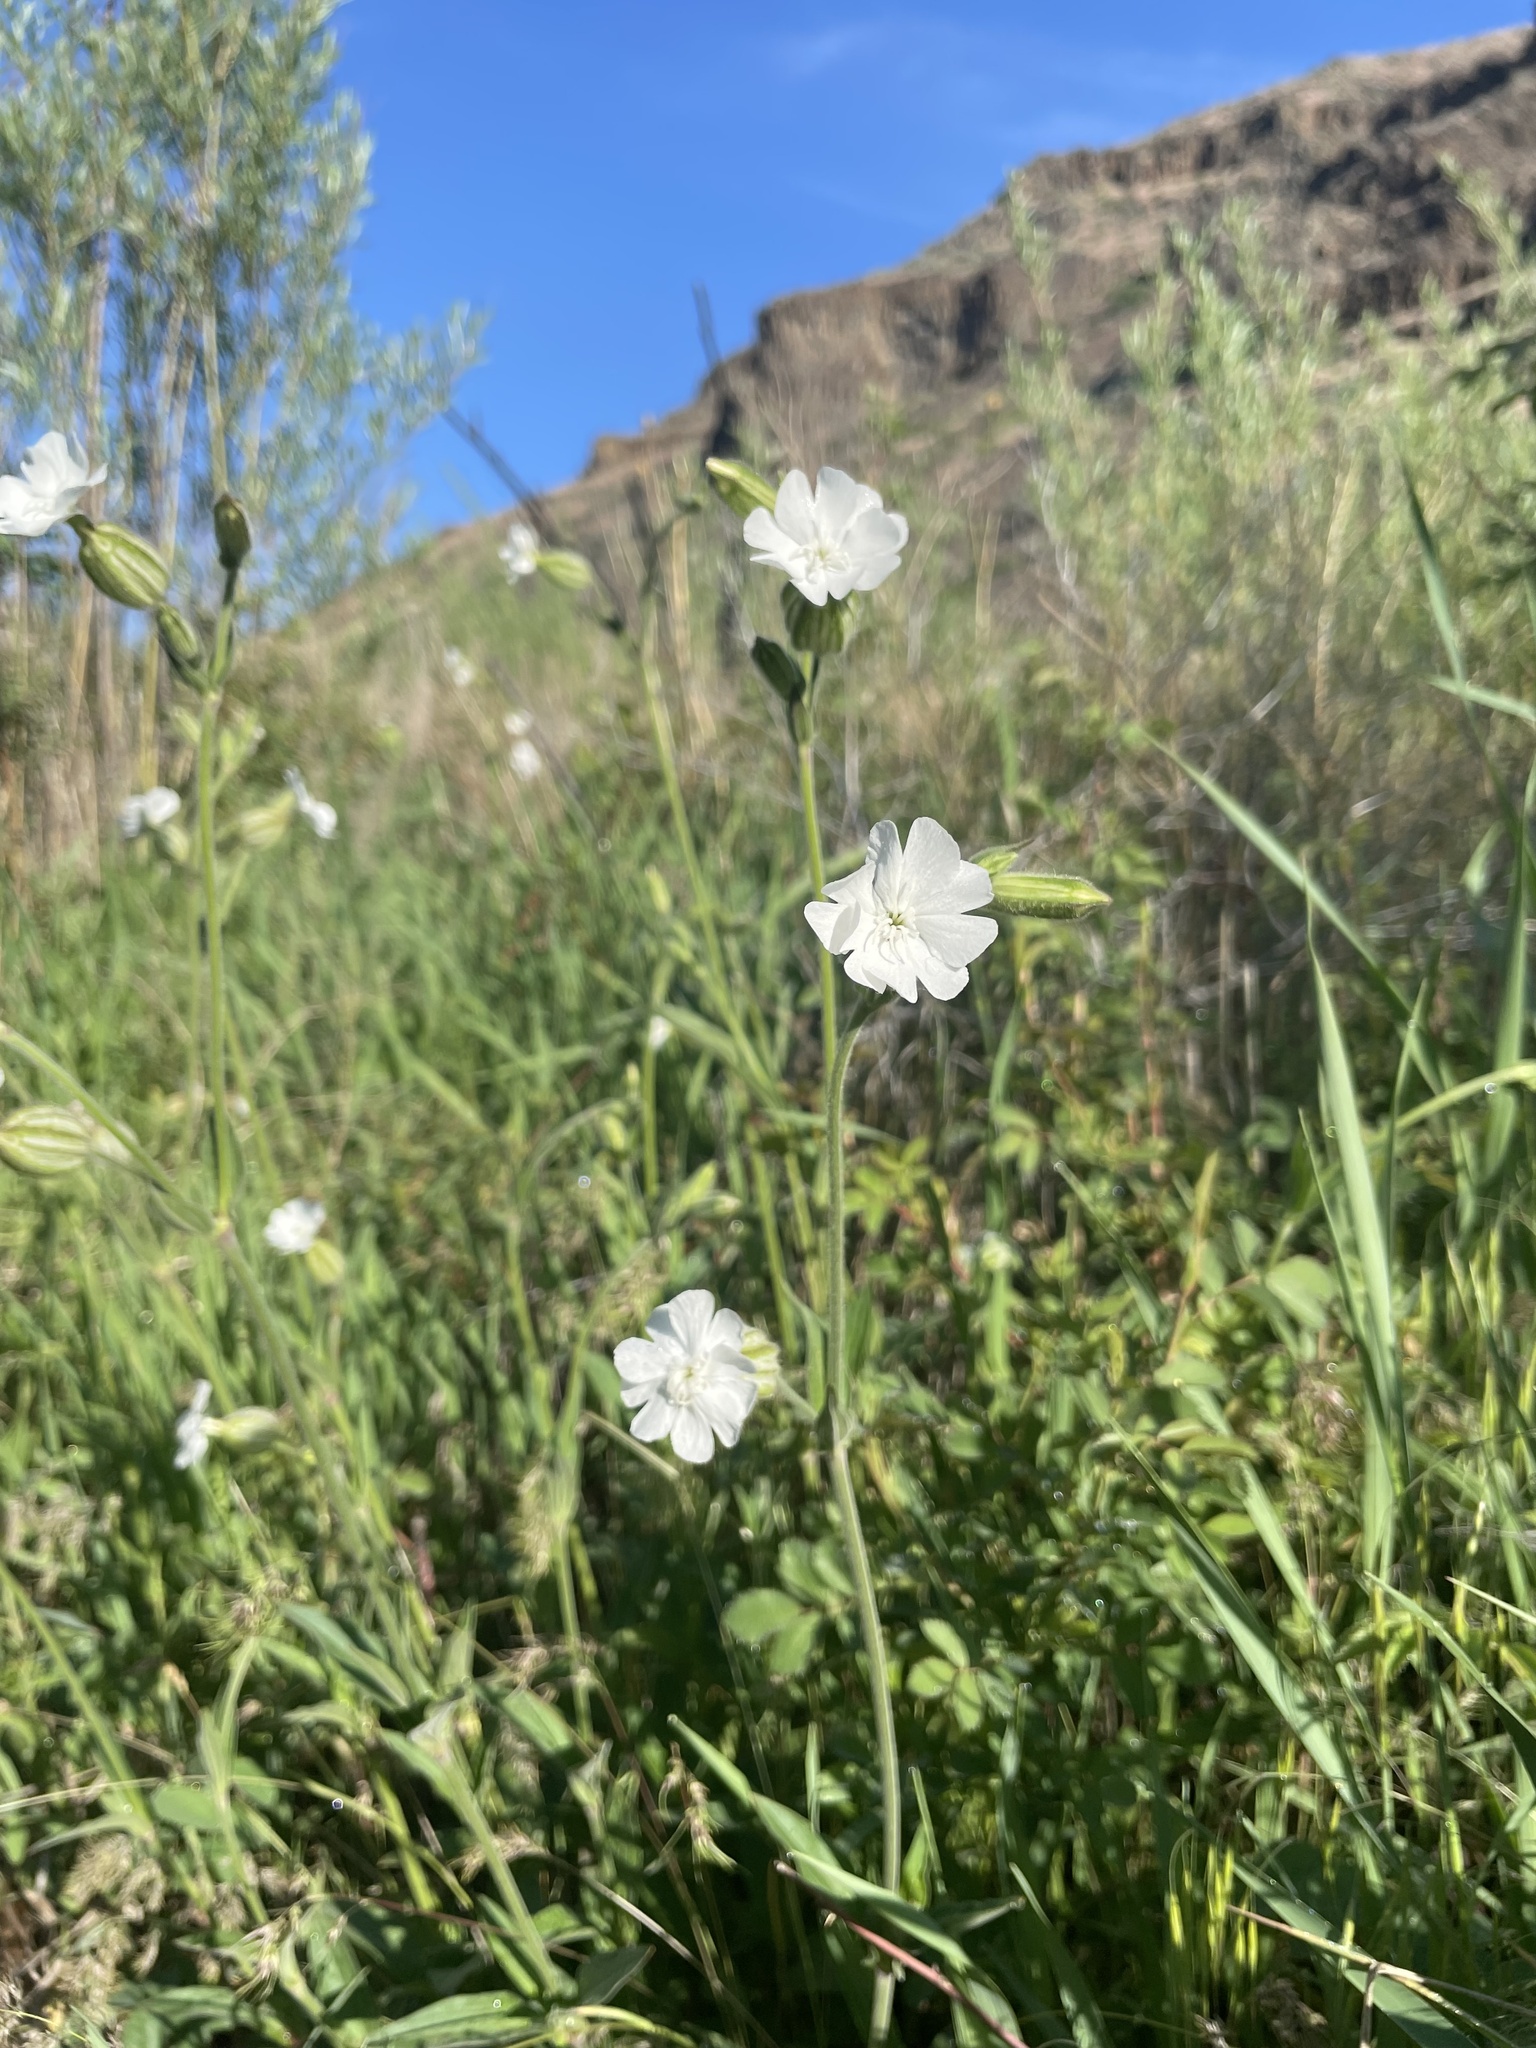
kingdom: Plantae
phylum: Tracheophyta
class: Magnoliopsida
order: Caryophyllales
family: Caryophyllaceae
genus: Silene
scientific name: Silene latifolia
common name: White campion
